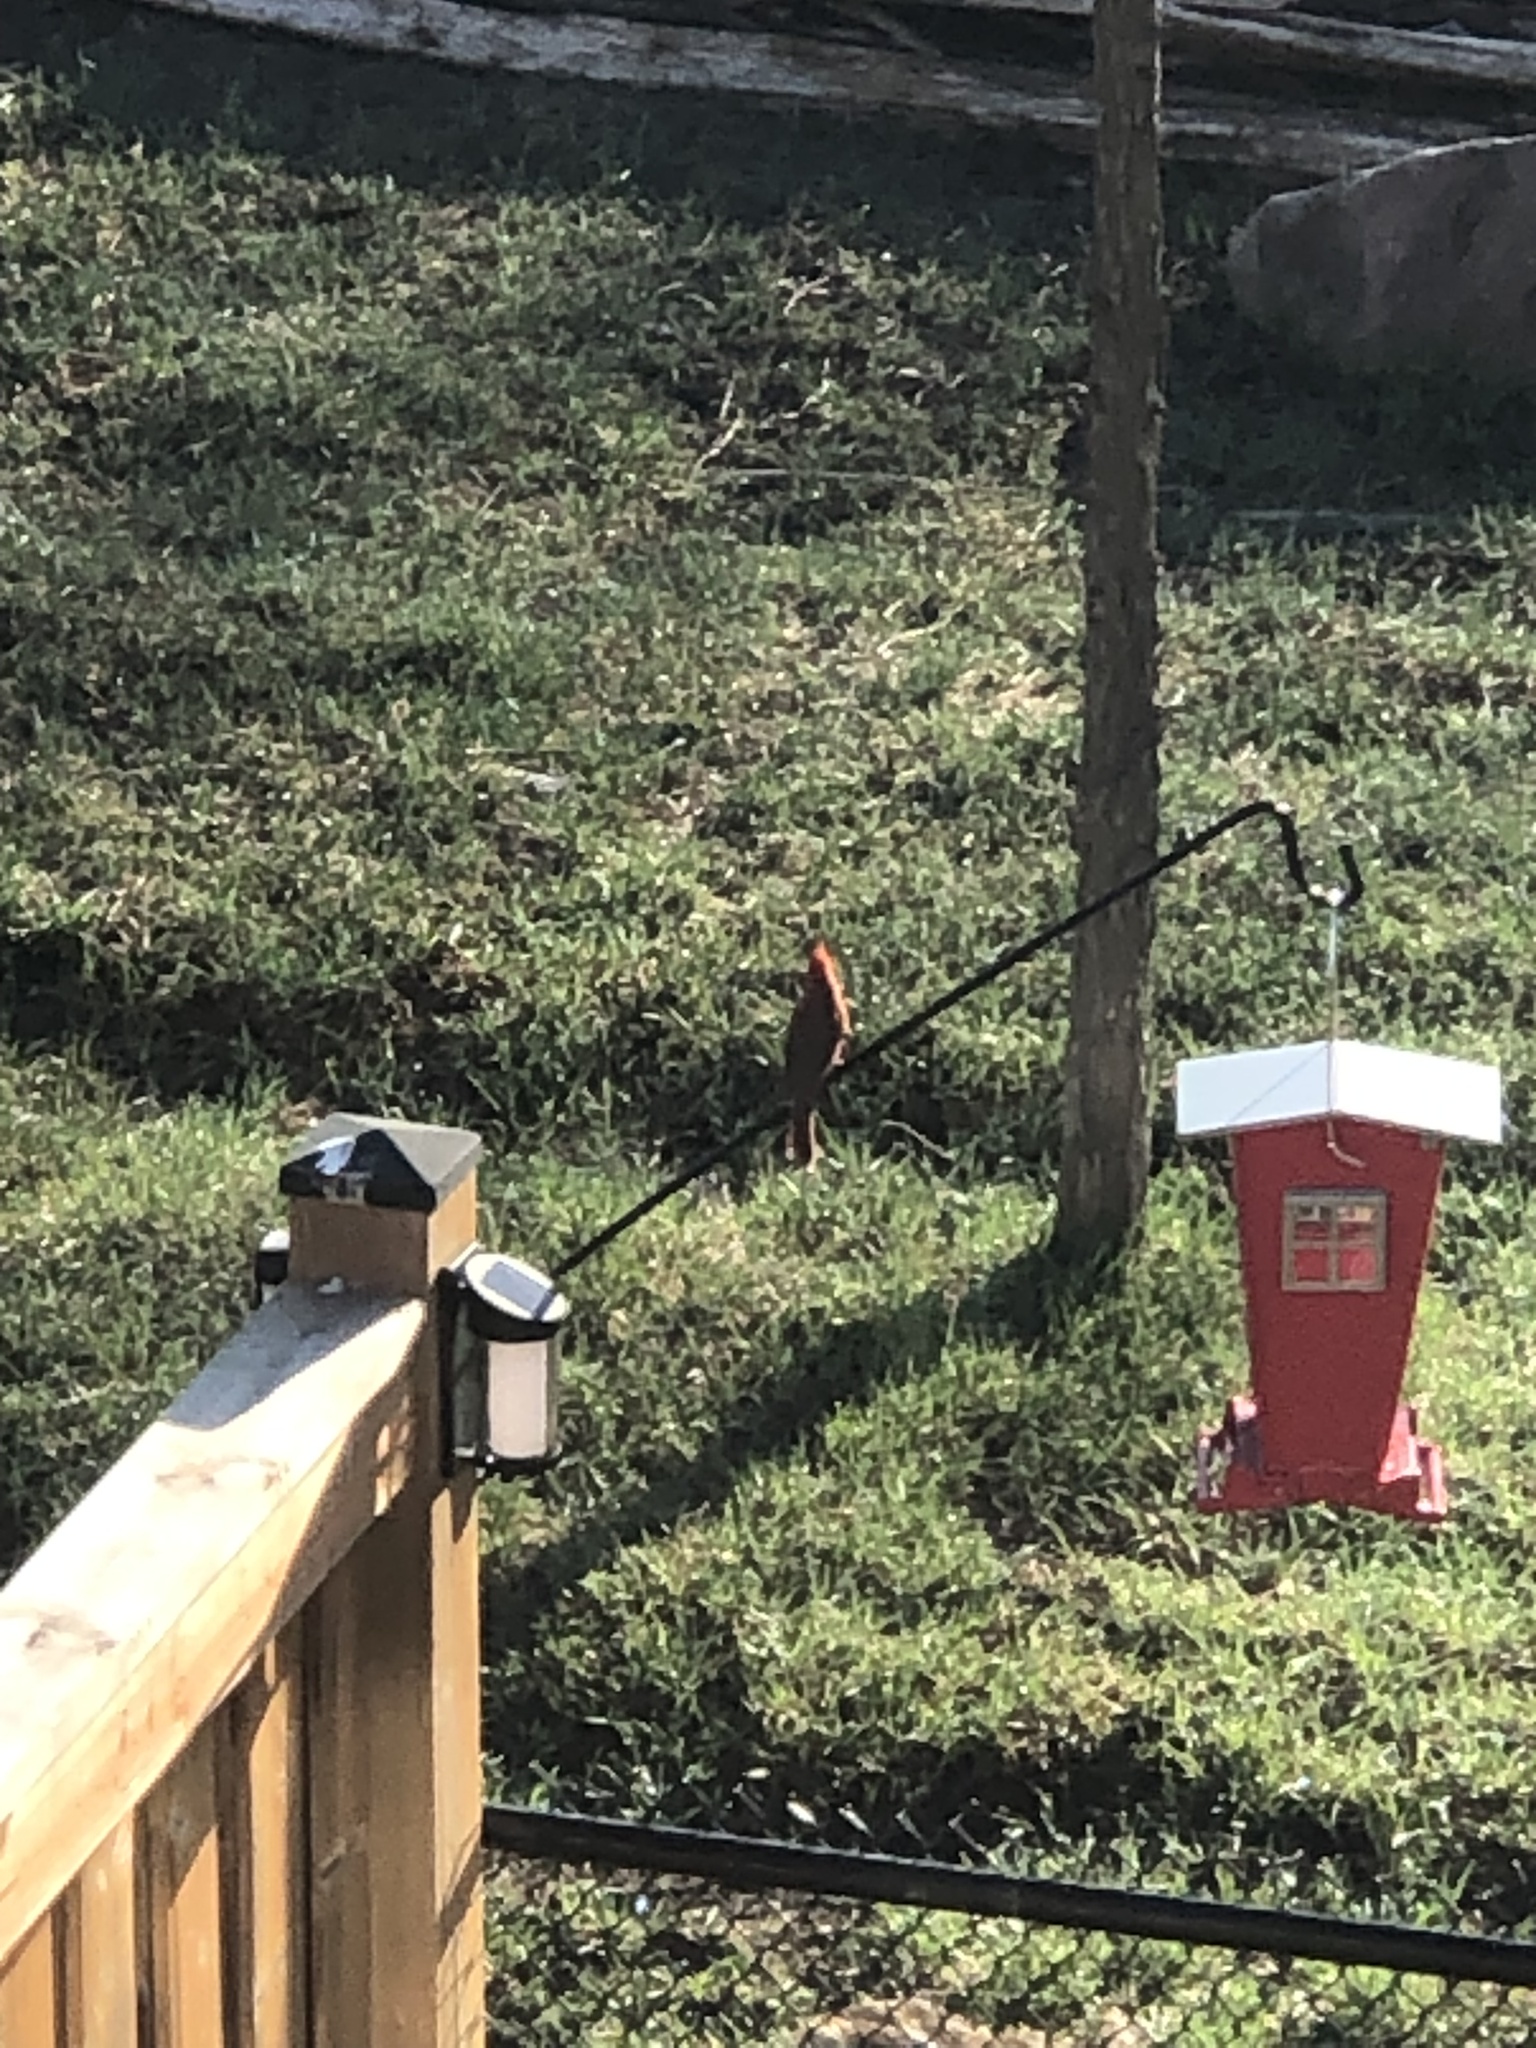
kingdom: Animalia
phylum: Chordata
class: Aves
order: Passeriformes
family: Cardinalidae
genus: Cardinalis
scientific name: Cardinalis cardinalis
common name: Northern cardinal
